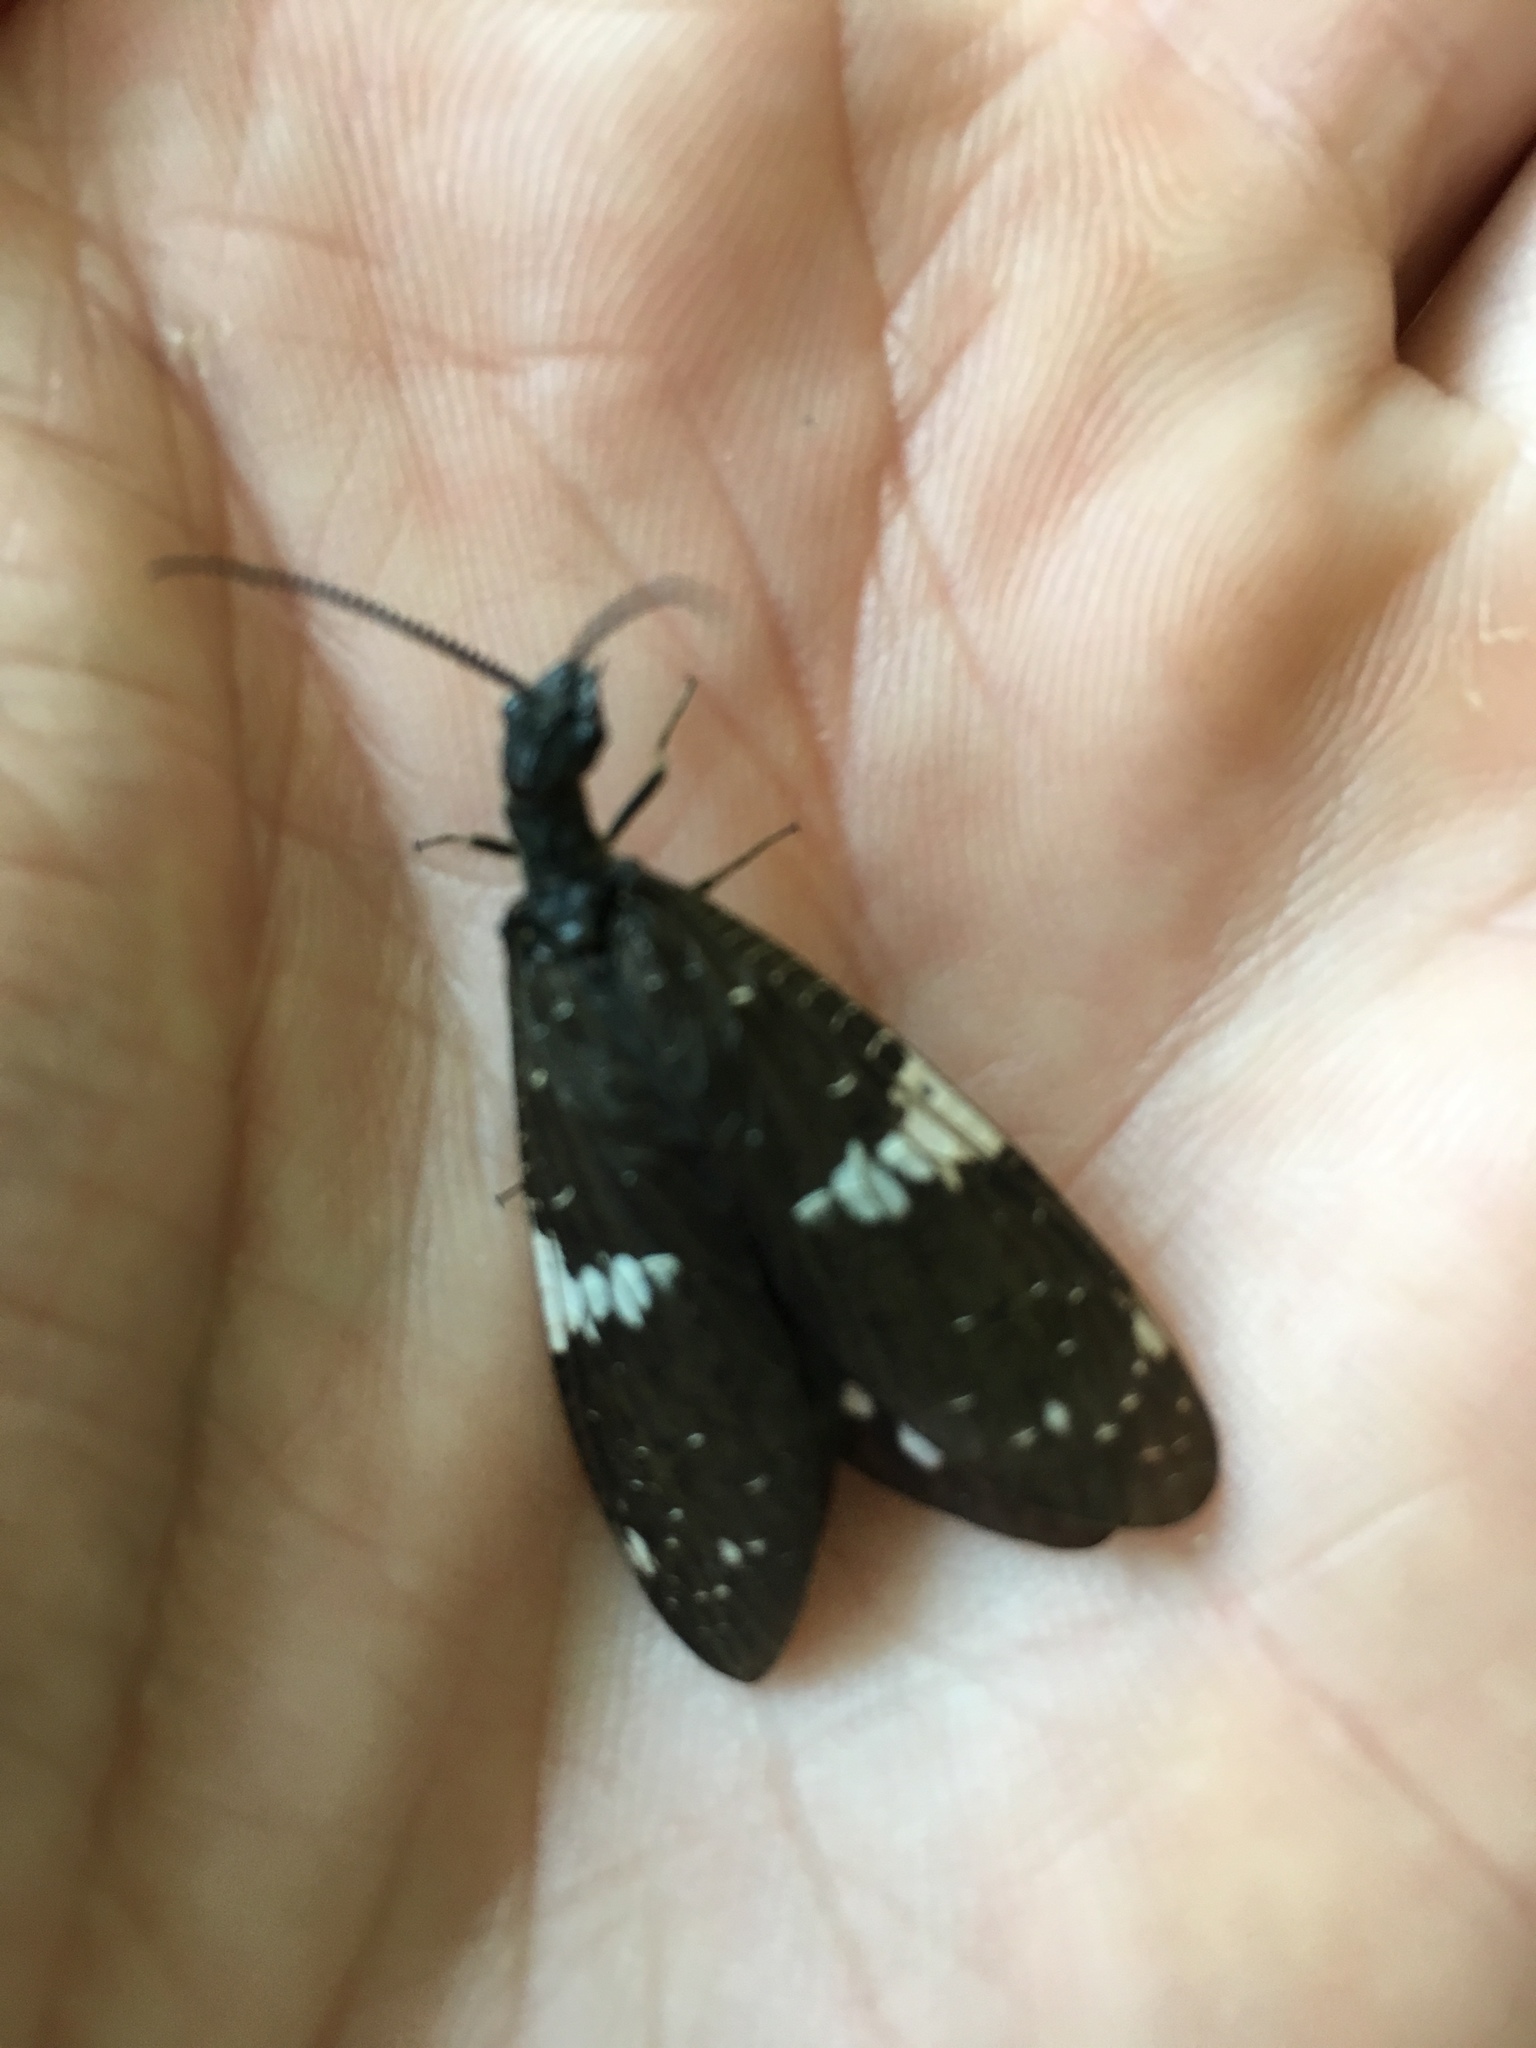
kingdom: Animalia
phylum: Arthropoda
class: Insecta
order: Megaloptera
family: Corydalidae
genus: Nigronia
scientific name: Nigronia serricornis
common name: Serrate dark fishfly
